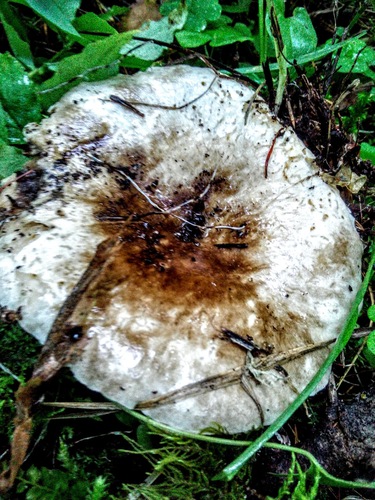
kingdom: Fungi
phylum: Basidiomycota
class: Agaricomycetes
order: Russulales
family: Russulaceae
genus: Russula
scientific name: Russula albonigra
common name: Menthol brittlegill
